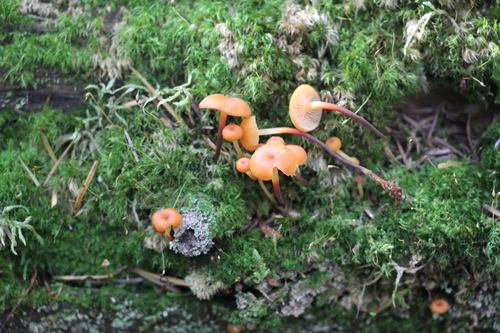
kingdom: Fungi
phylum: Basidiomycota
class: Agaricomycetes
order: Agaricales
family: Mycenaceae
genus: Xeromphalina
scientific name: Xeromphalina campanella
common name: Pinewood gingertail
